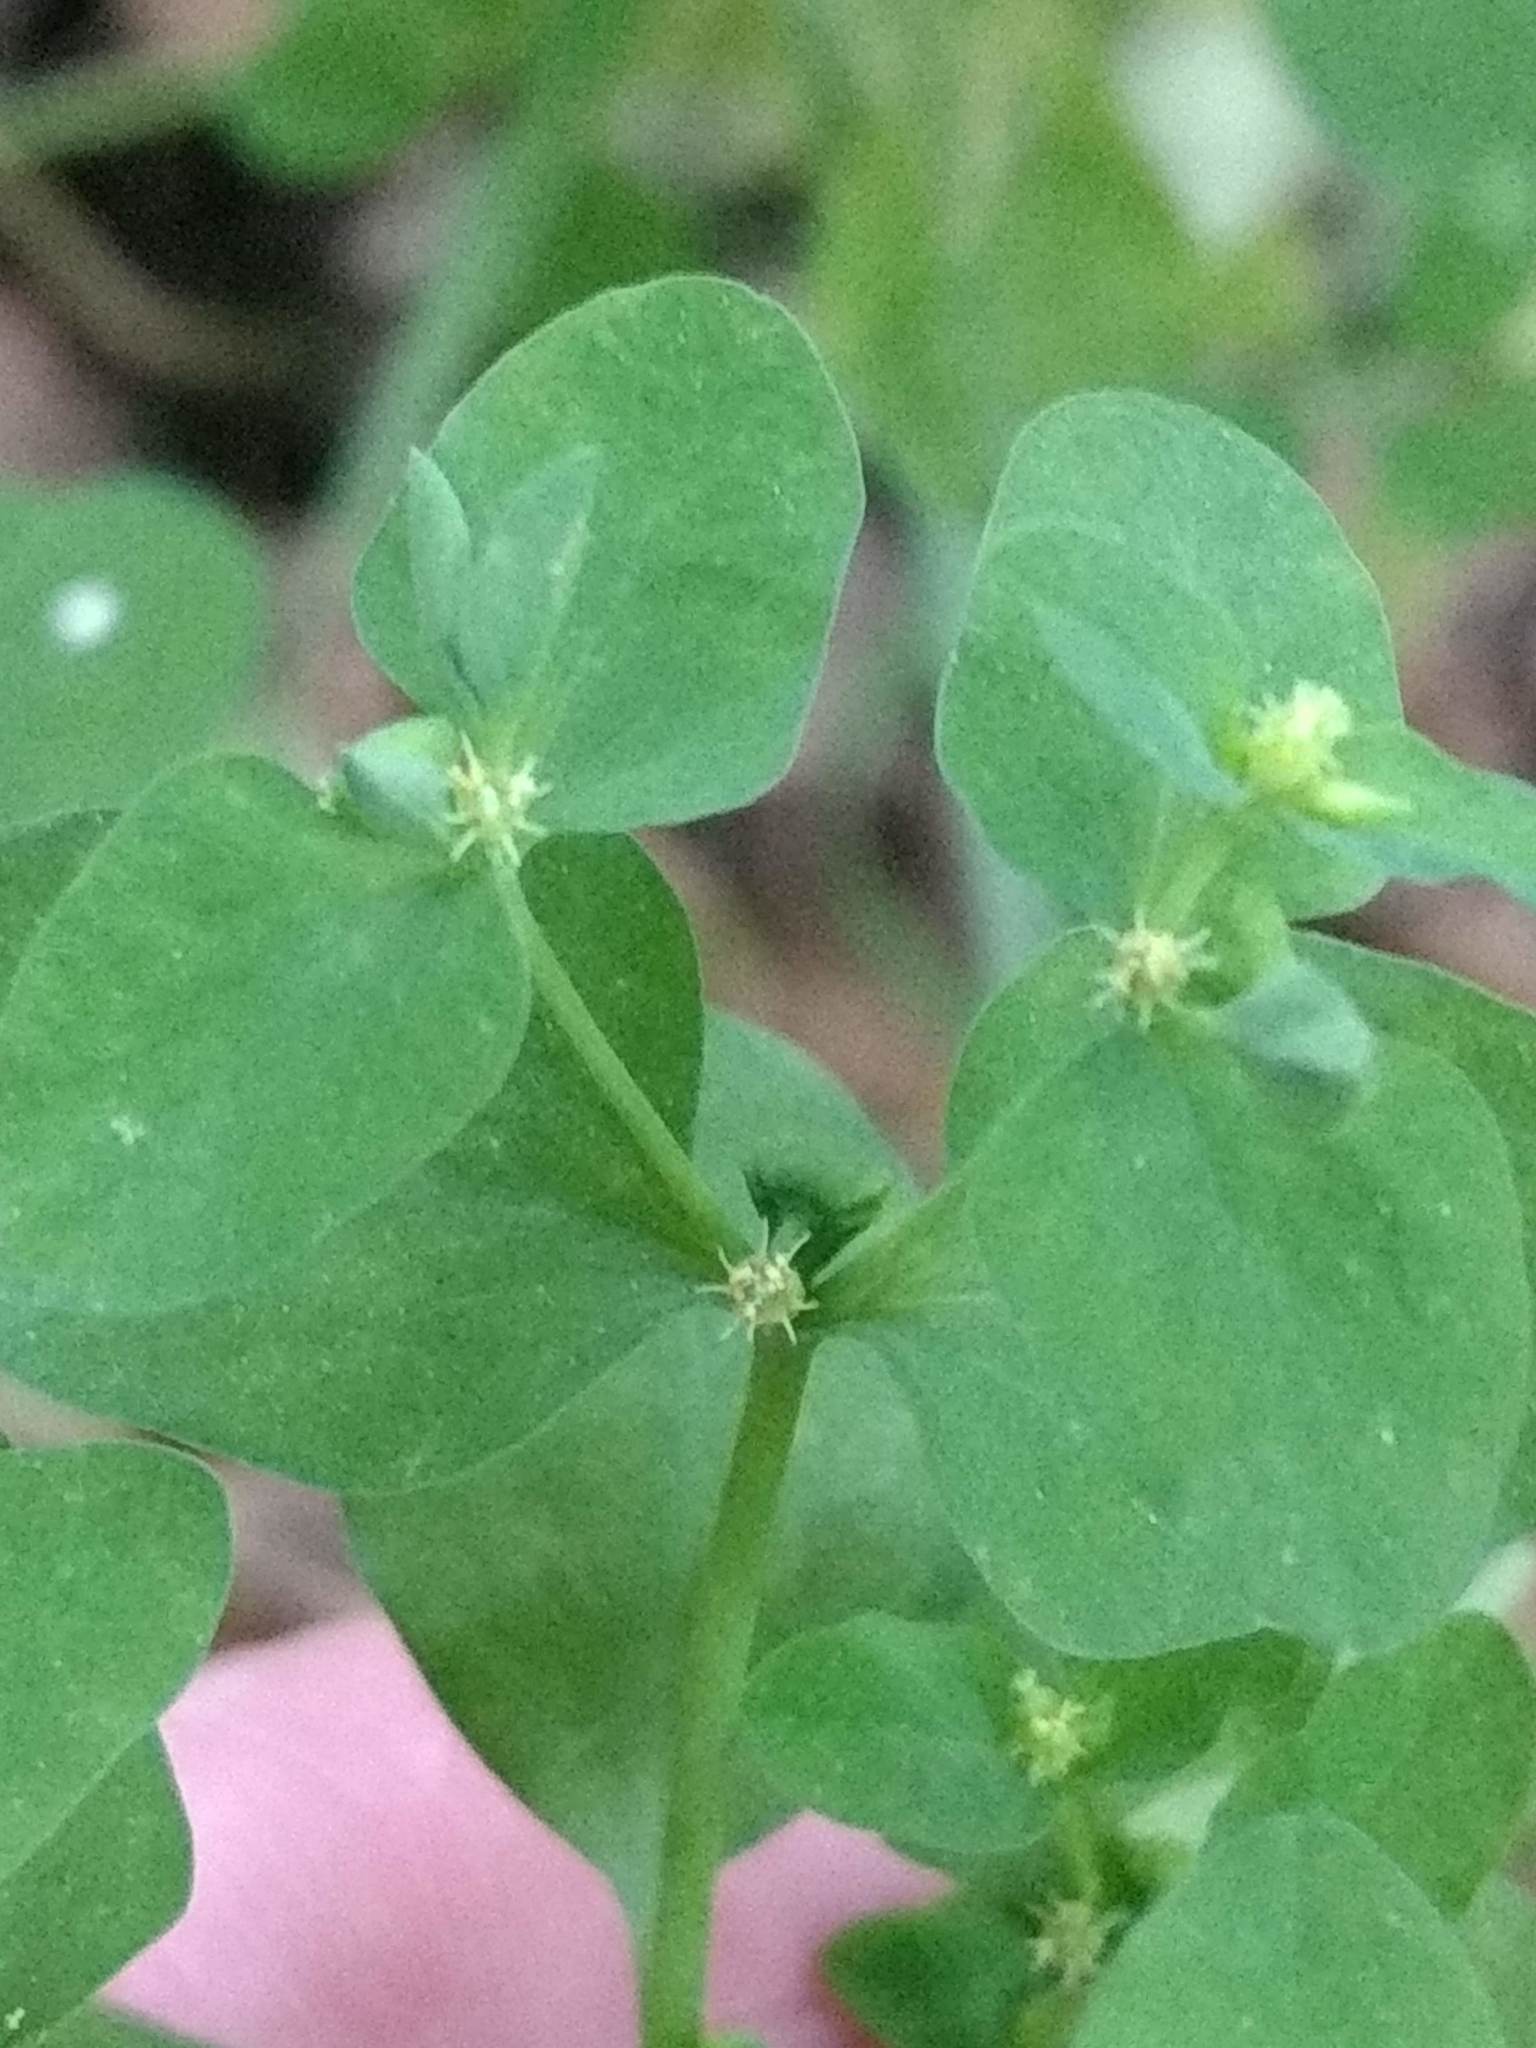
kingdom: Plantae
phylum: Tracheophyta
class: Magnoliopsida
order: Malpighiales
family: Euphorbiaceae
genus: Euphorbia
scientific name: Euphorbia peplus
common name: Petty spurge
